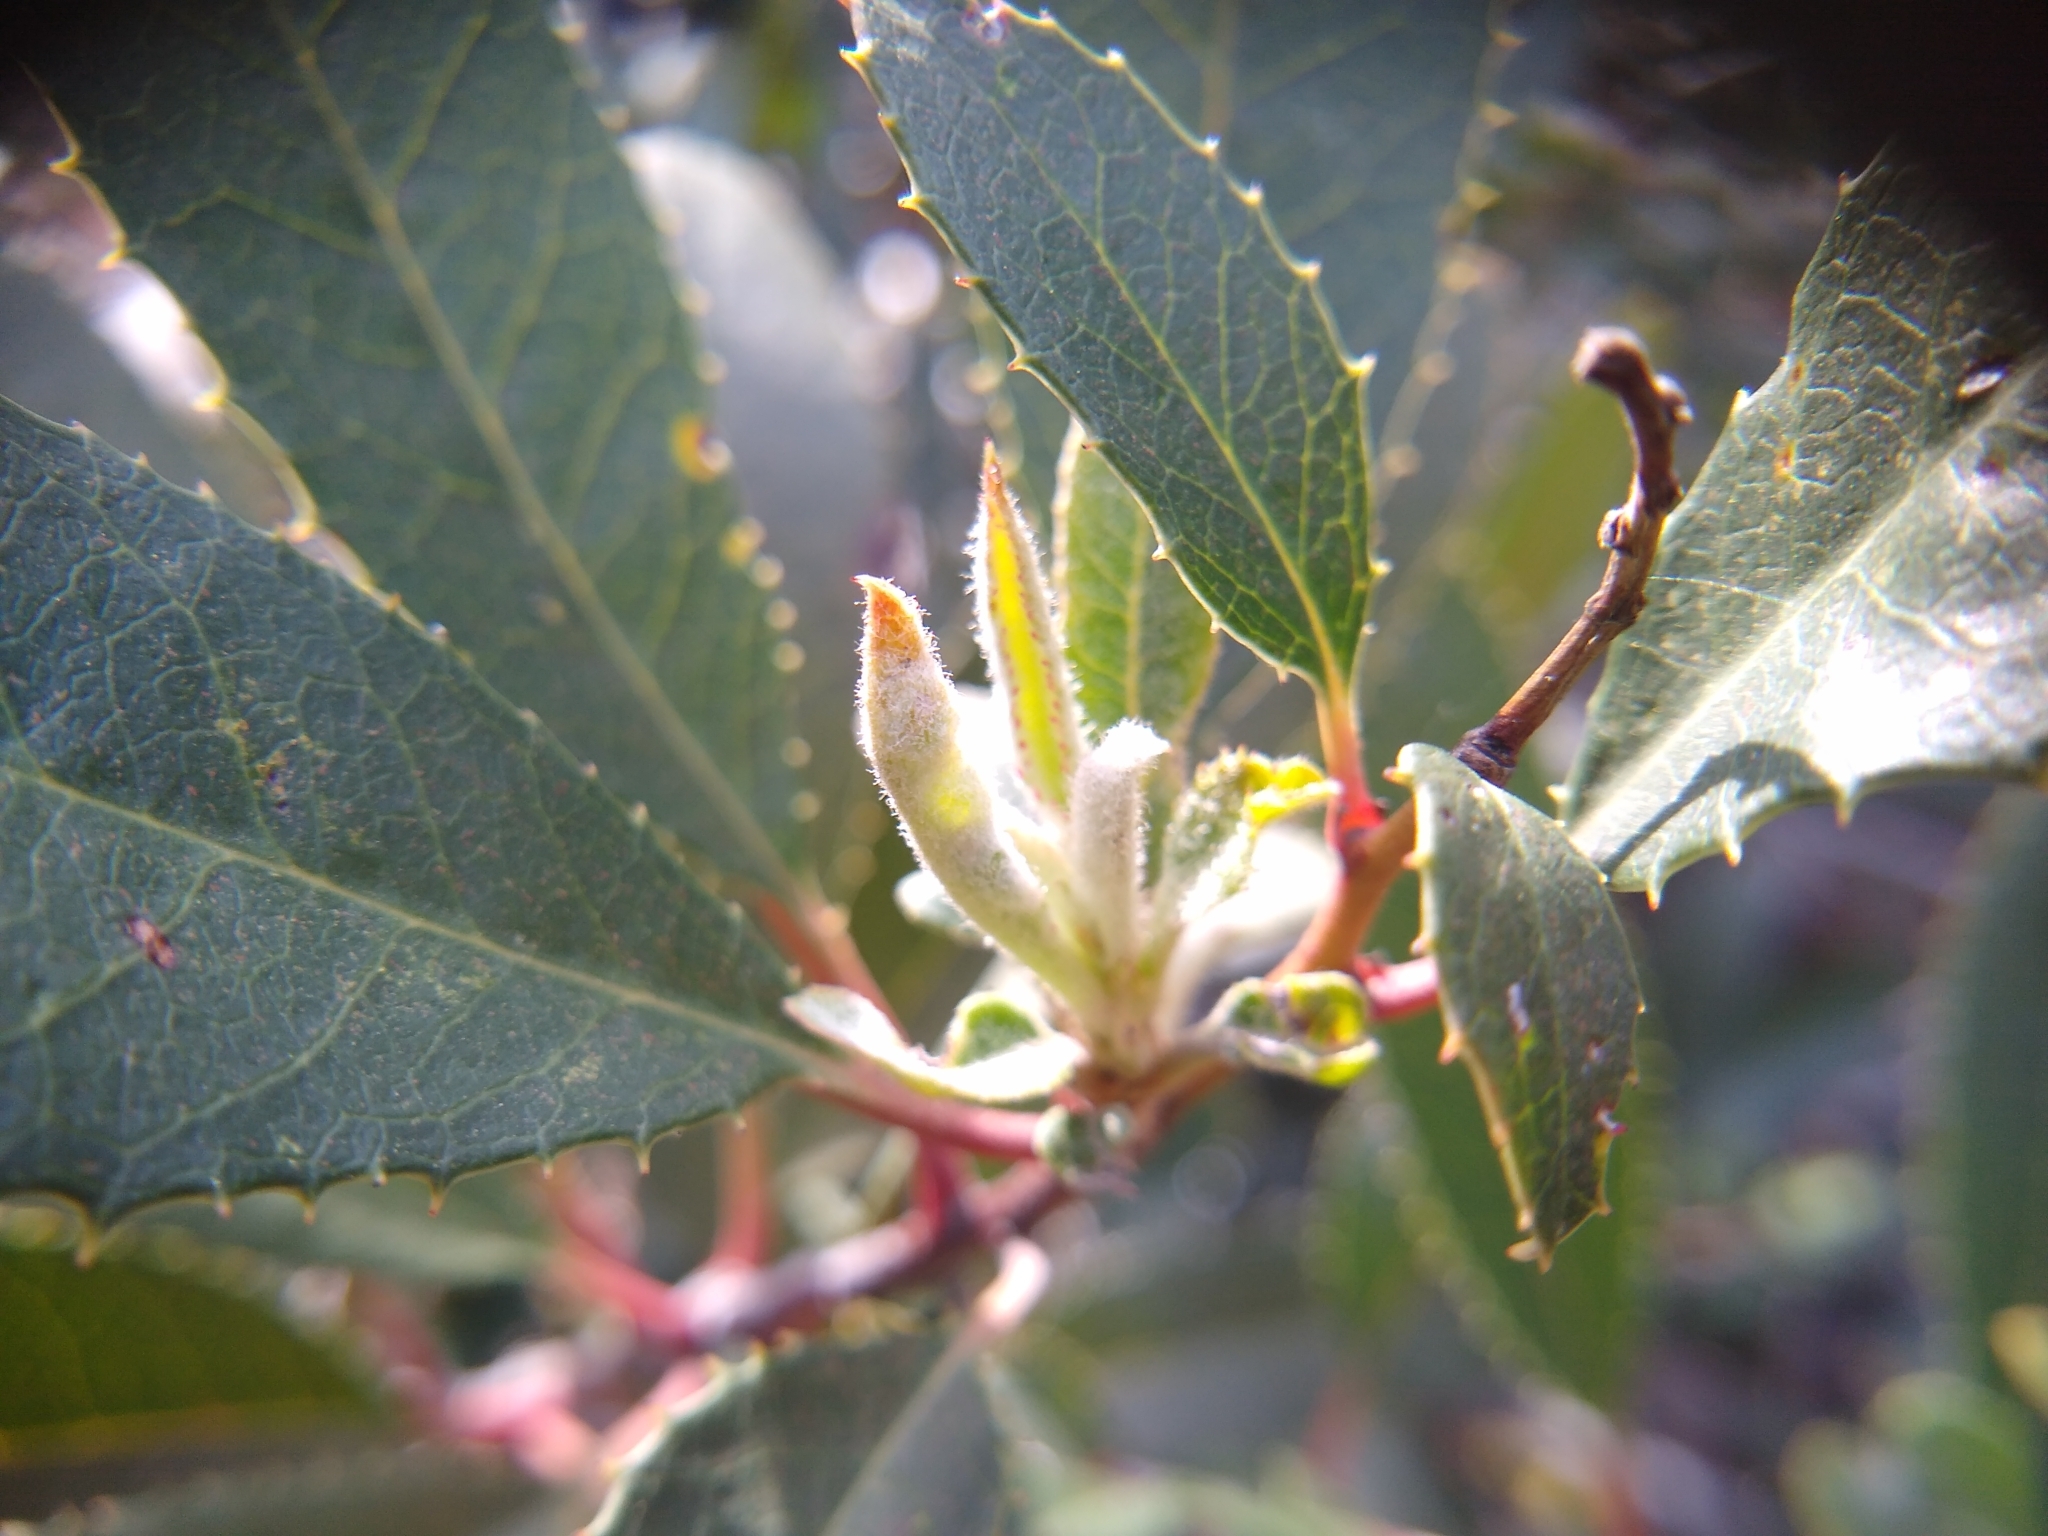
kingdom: Plantae
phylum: Tracheophyta
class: Magnoliopsida
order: Rosales
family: Rosaceae
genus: Heteromeles
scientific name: Heteromeles arbutifolia
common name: California-holly
